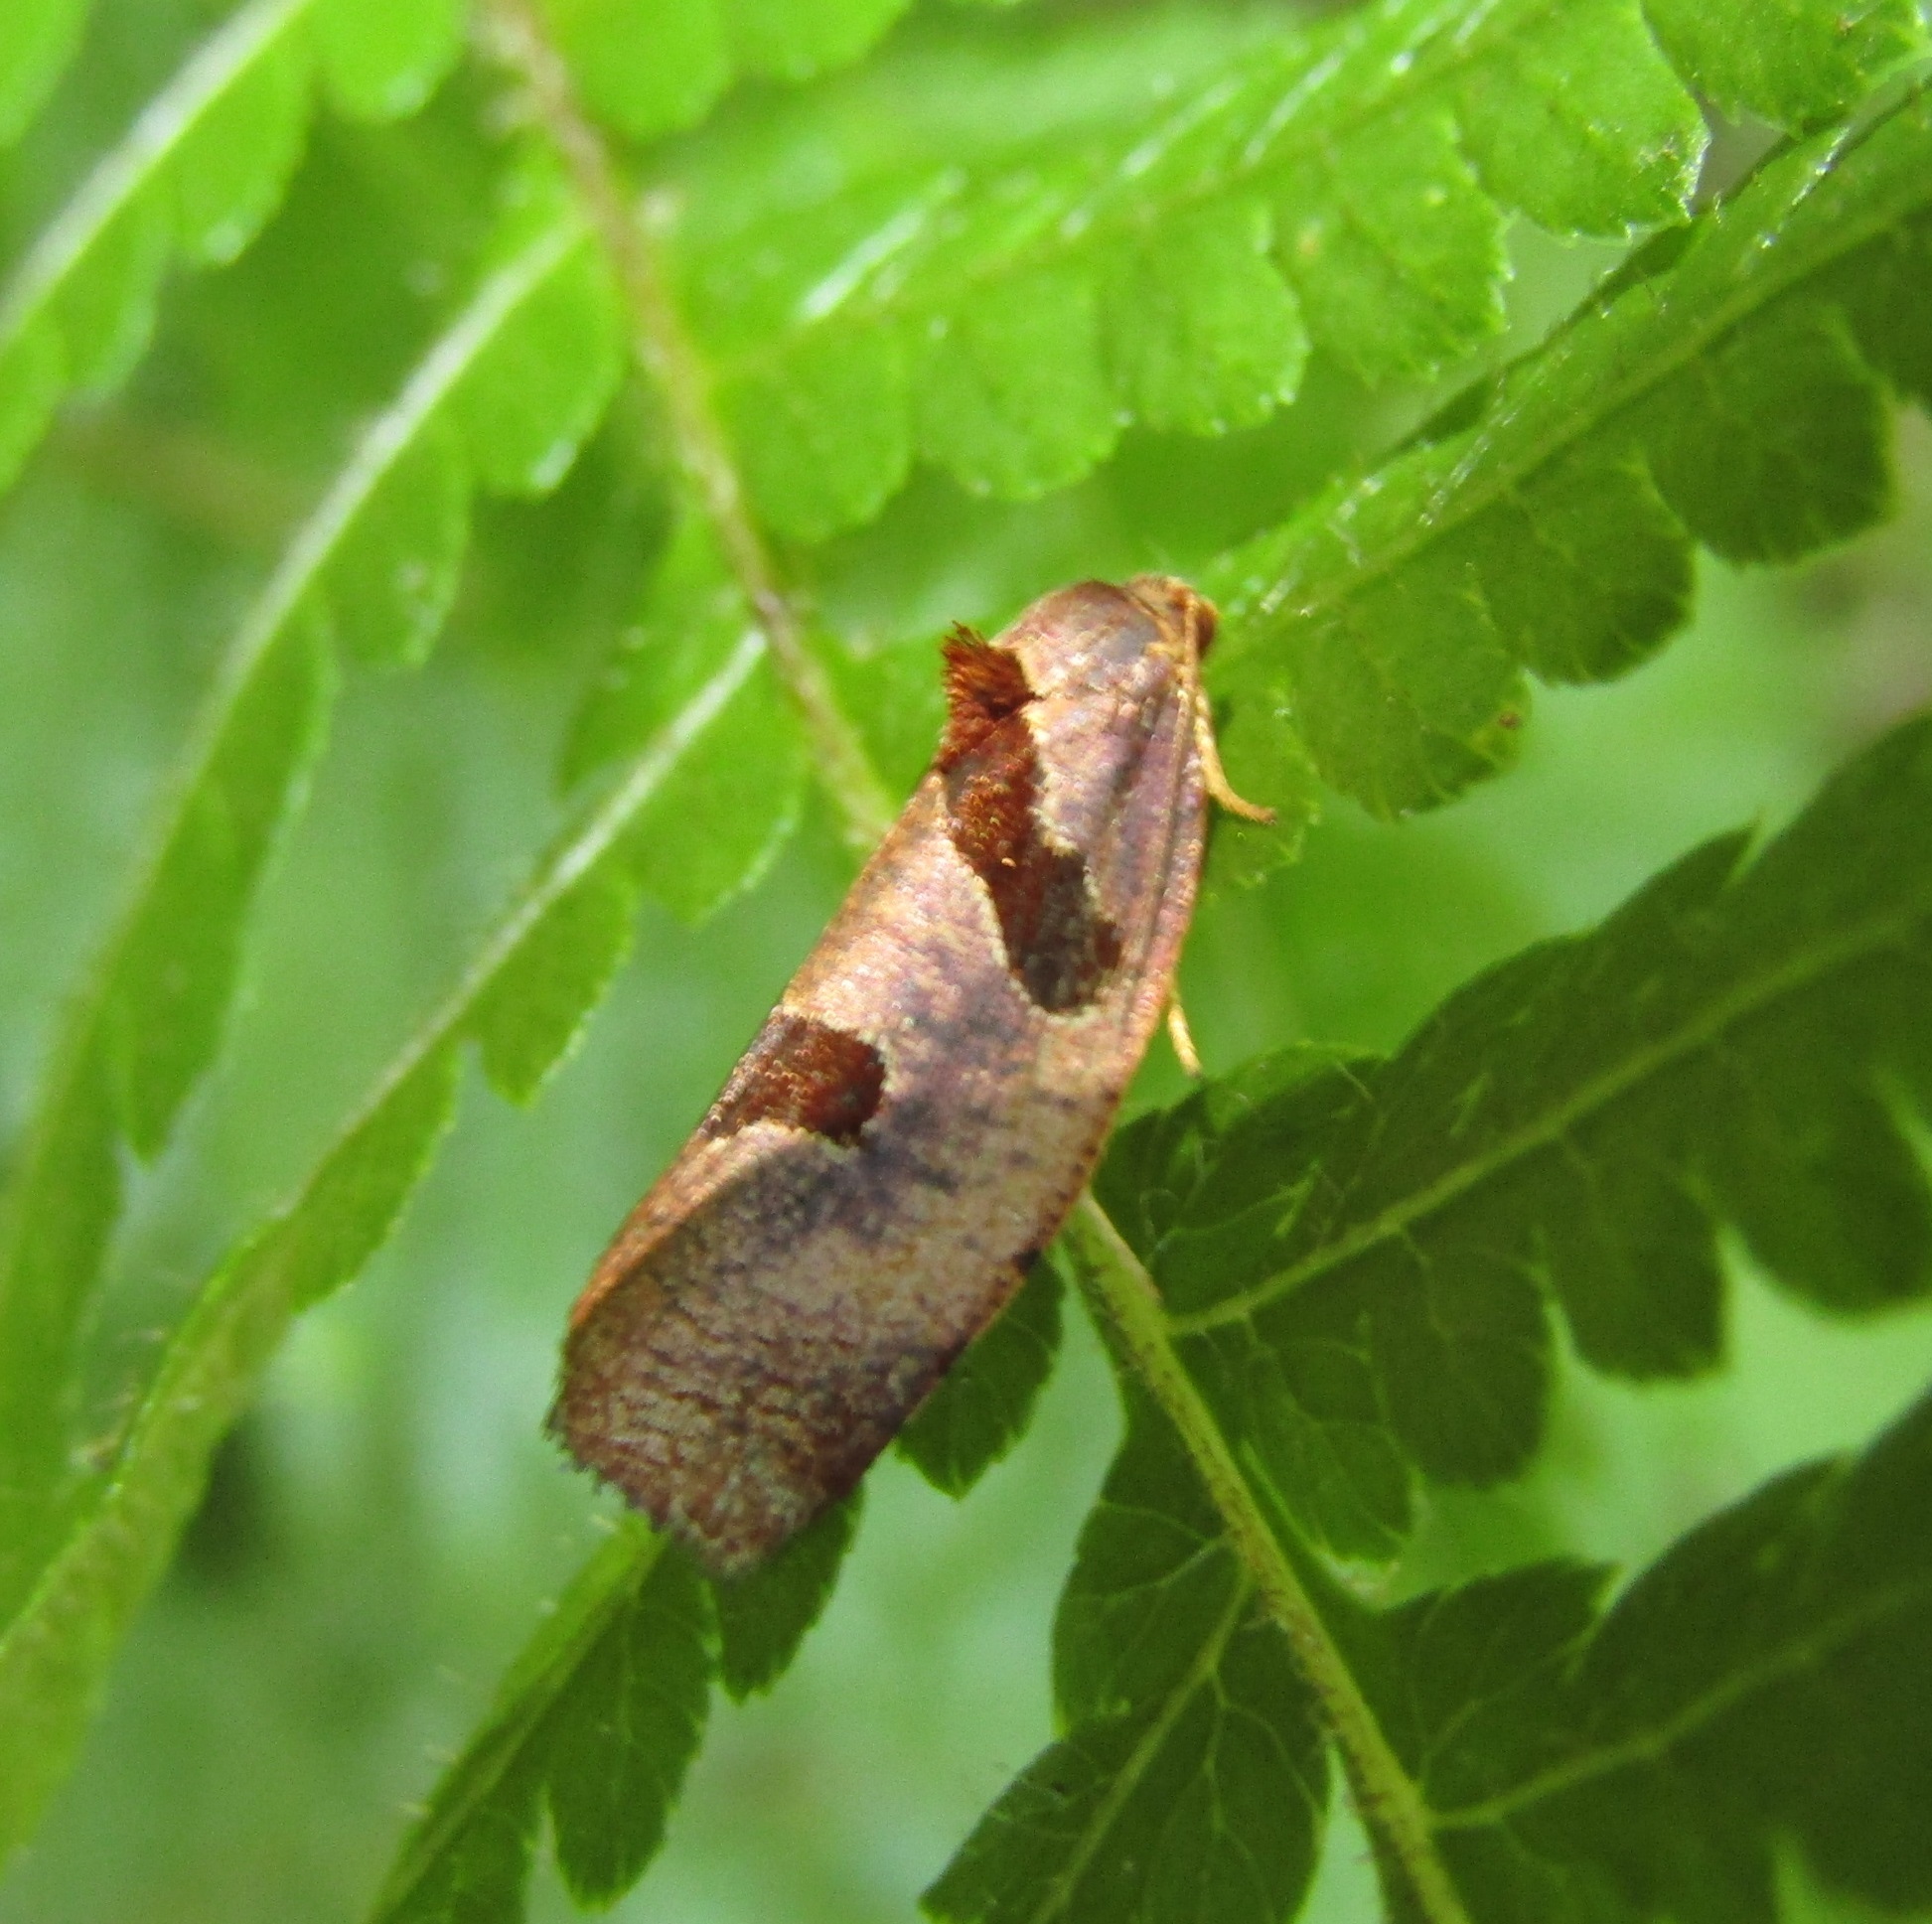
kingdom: Animalia
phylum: Arthropoda
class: Insecta
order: Lepidoptera
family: Tortricidae
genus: Ochetarcha
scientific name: Ochetarcha
